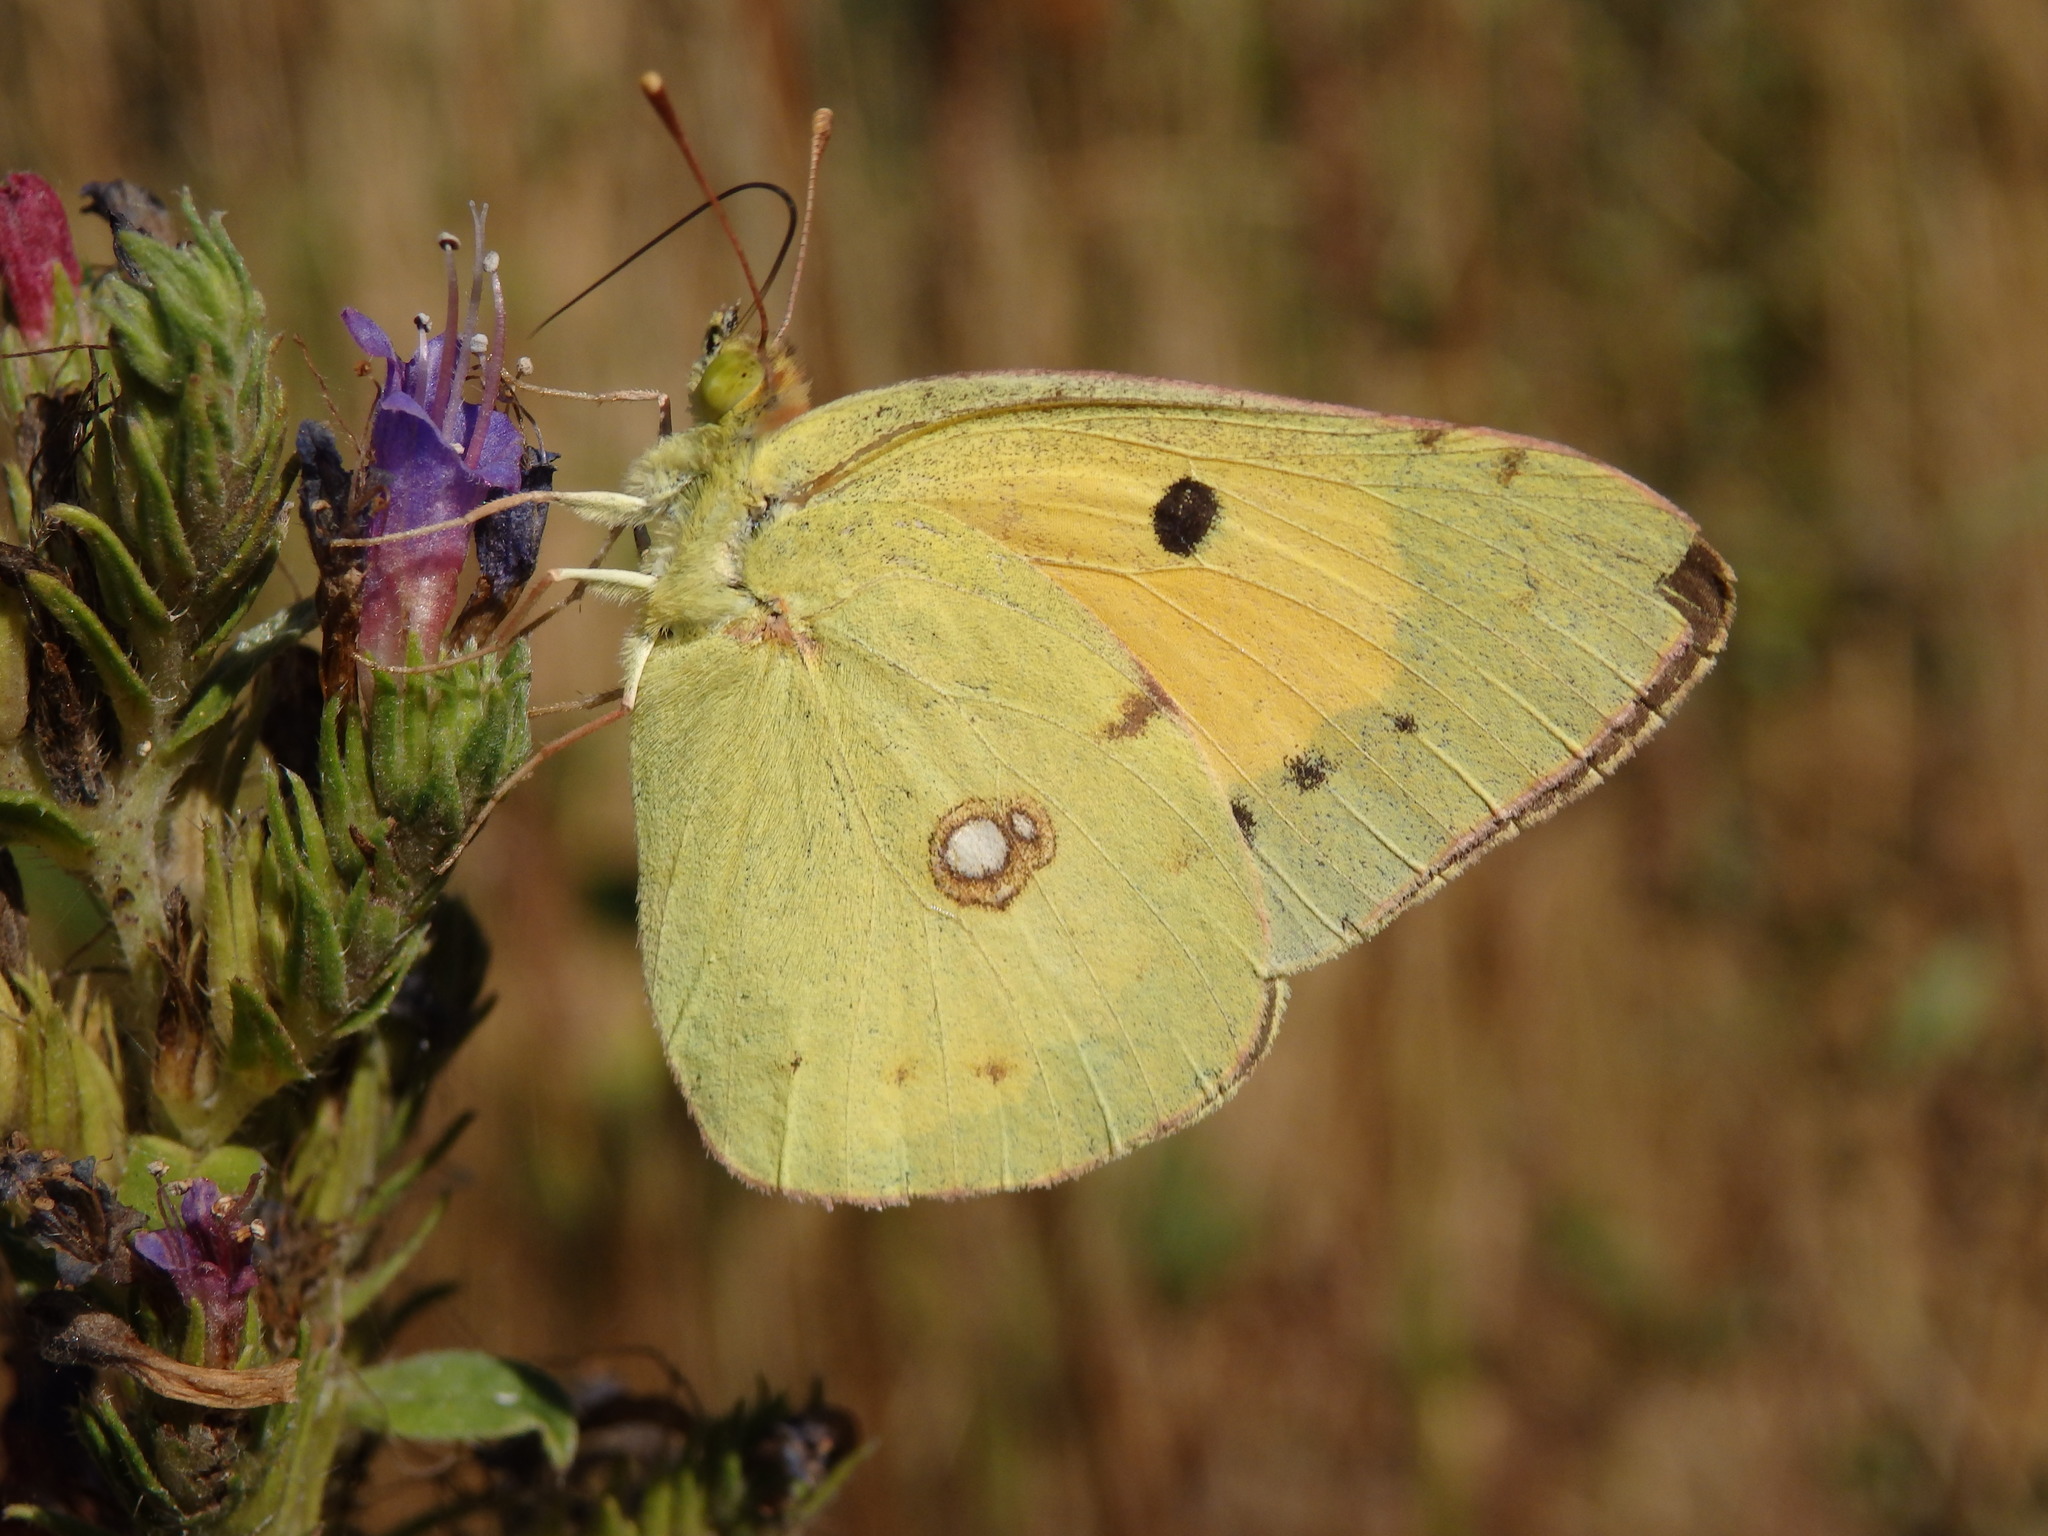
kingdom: Animalia
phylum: Arthropoda
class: Insecta
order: Lepidoptera
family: Pieridae
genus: Colias
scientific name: Colias croceus
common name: Clouded yellow
